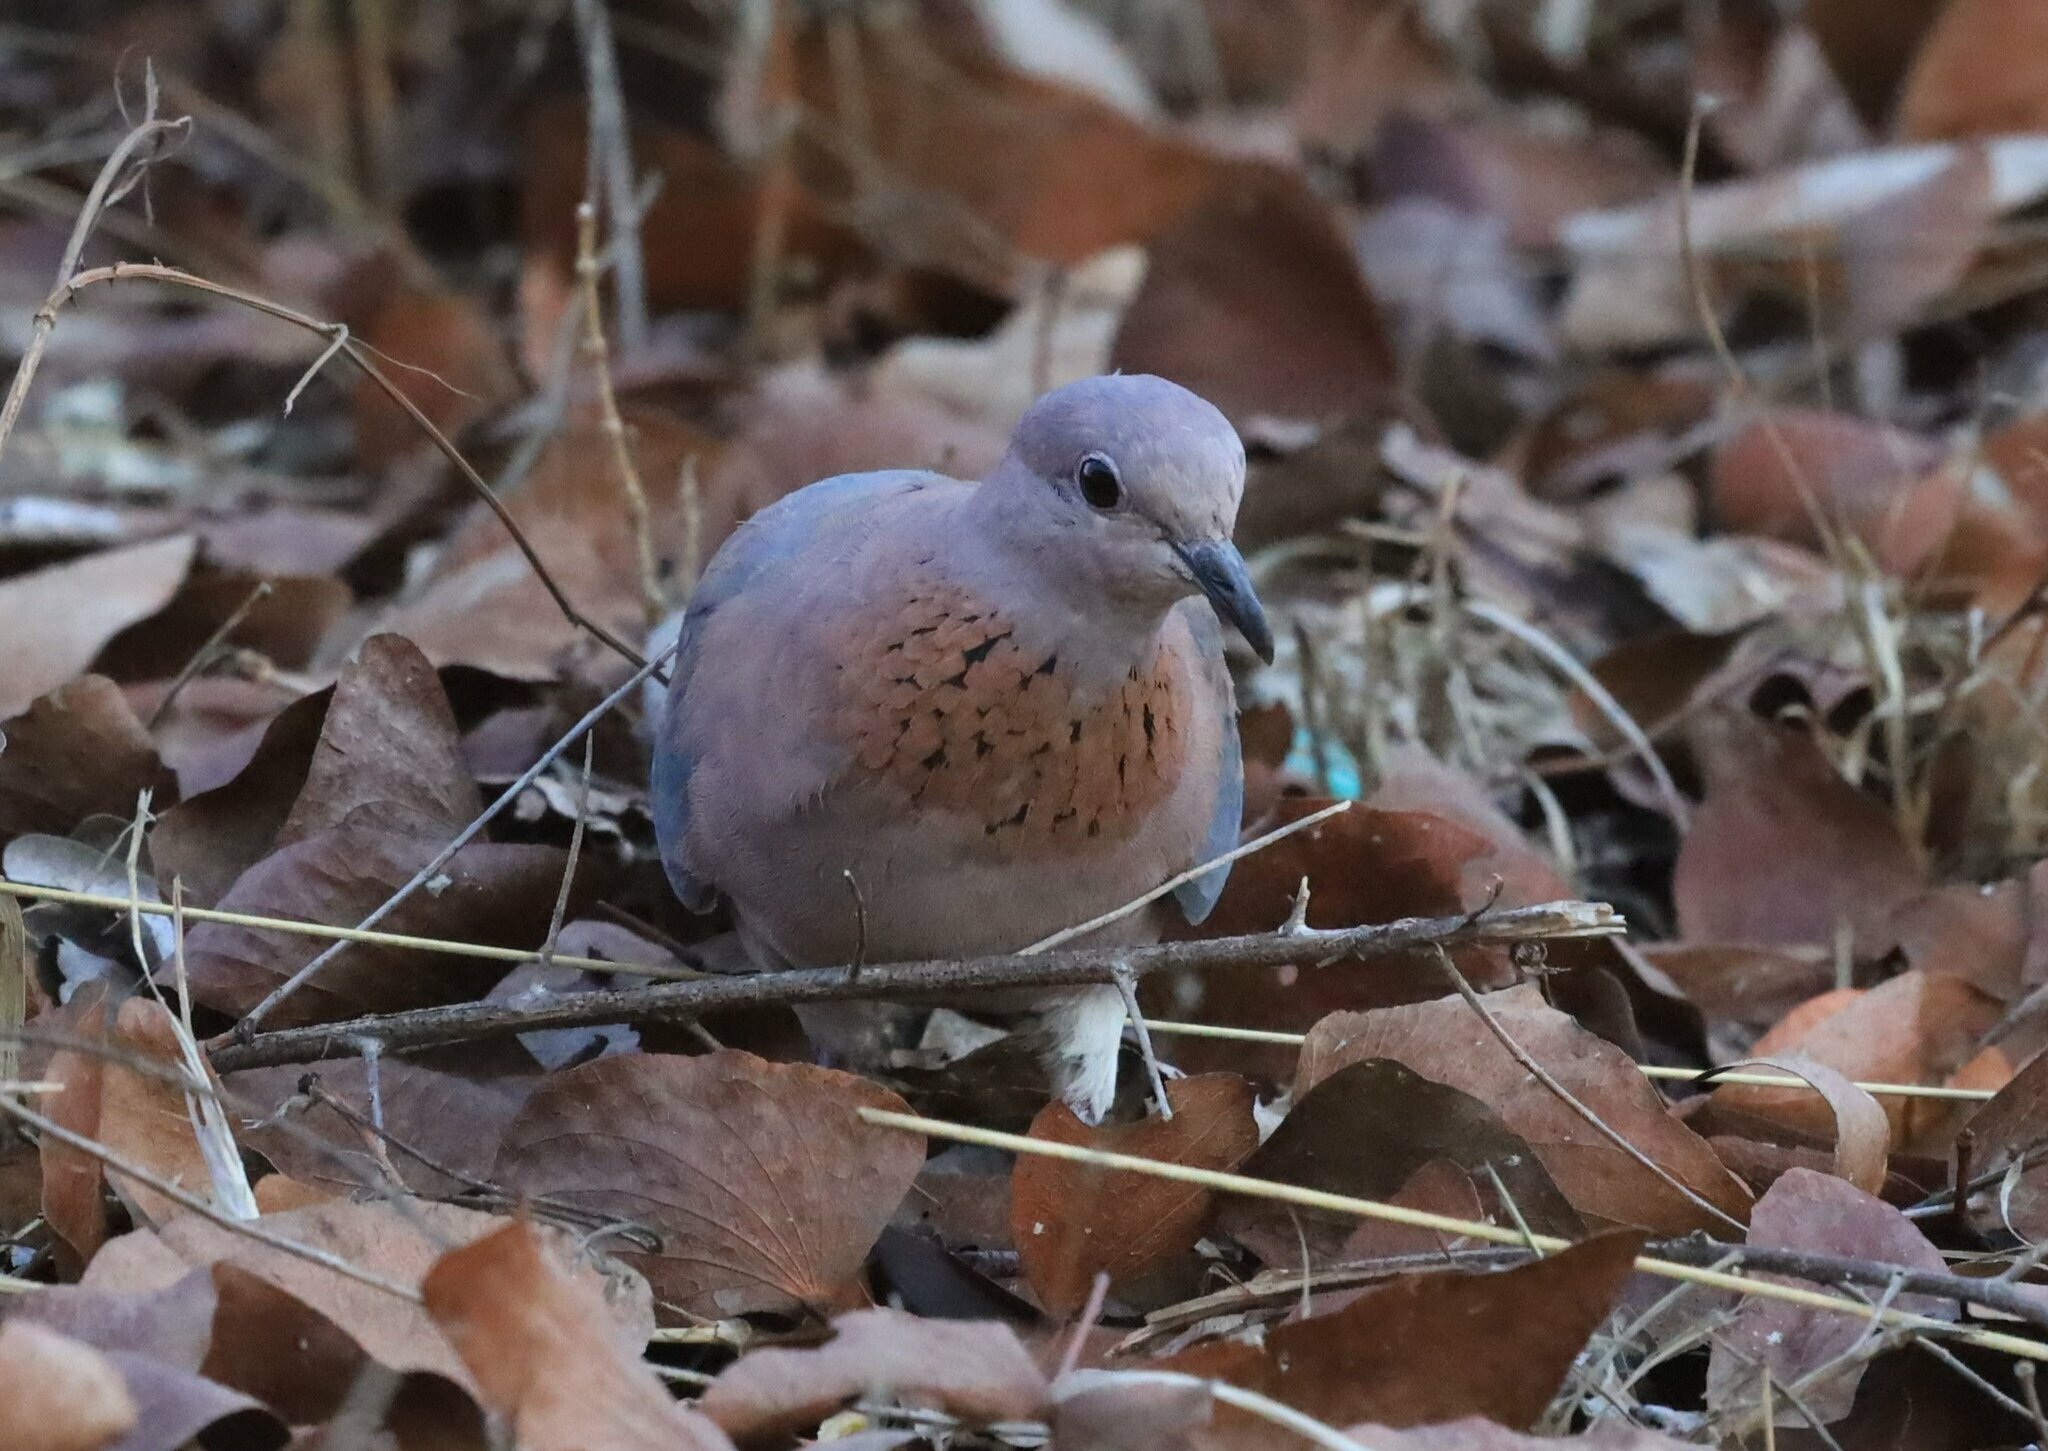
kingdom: Animalia
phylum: Chordata
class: Aves
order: Columbiformes
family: Columbidae
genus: Spilopelia
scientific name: Spilopelia senegalensis
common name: Laughing dove
